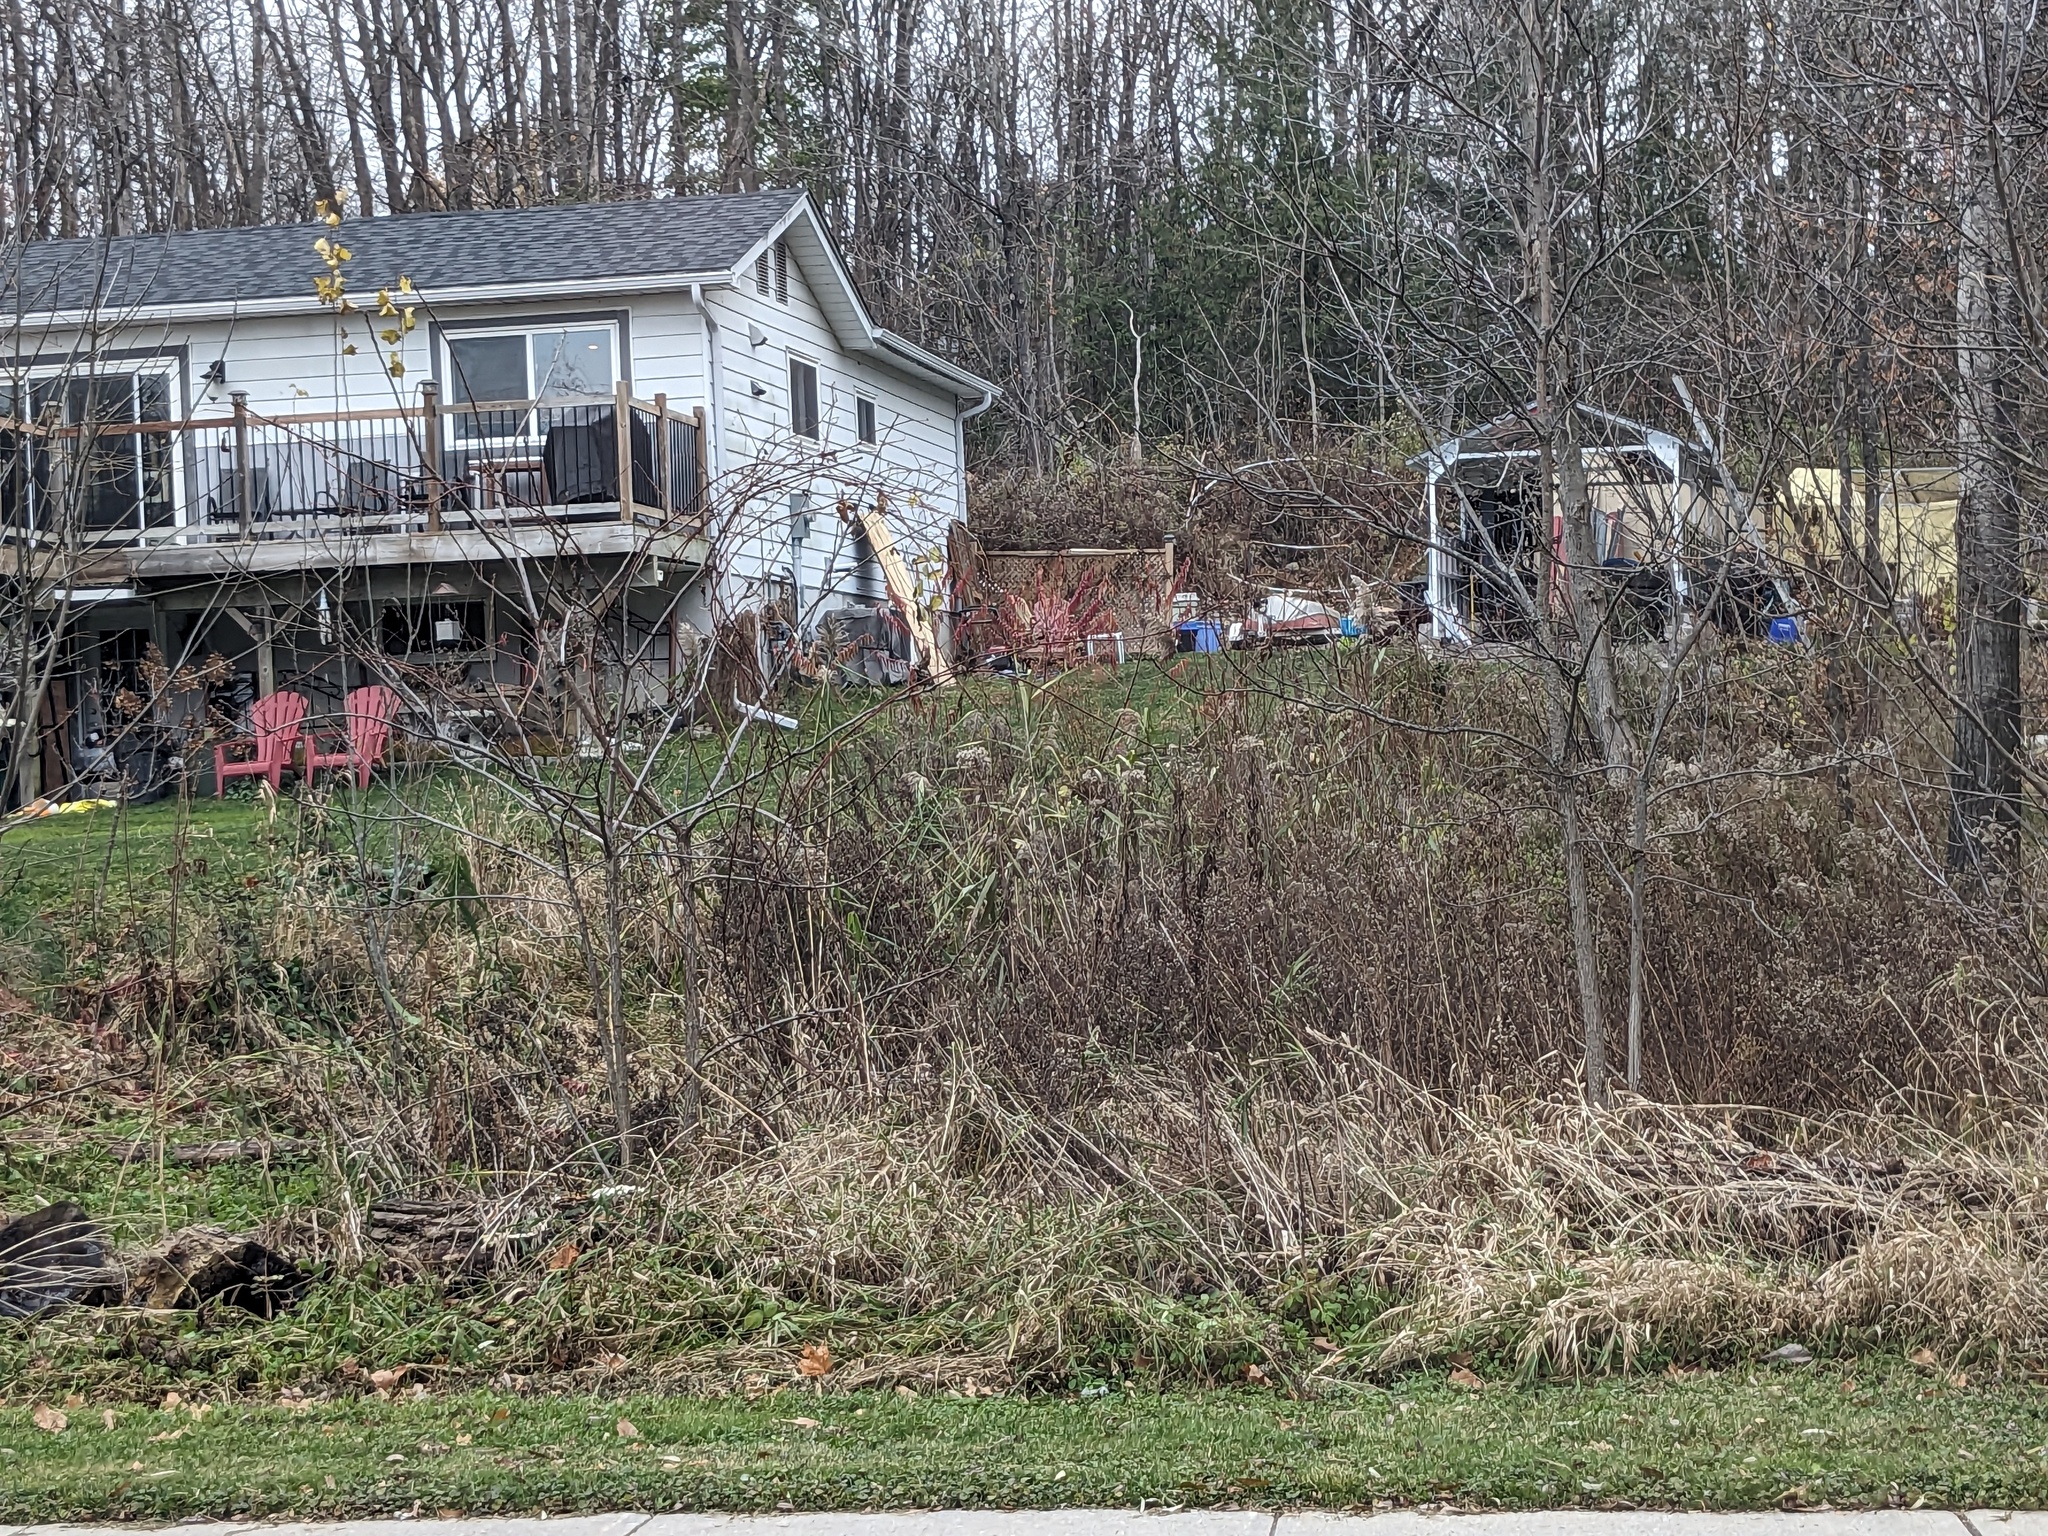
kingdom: Plantae
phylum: Tracheophyta
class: Liliopsida
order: Poales
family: Poaceae
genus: Phragmites
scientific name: Phragmites australis
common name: Common reed
